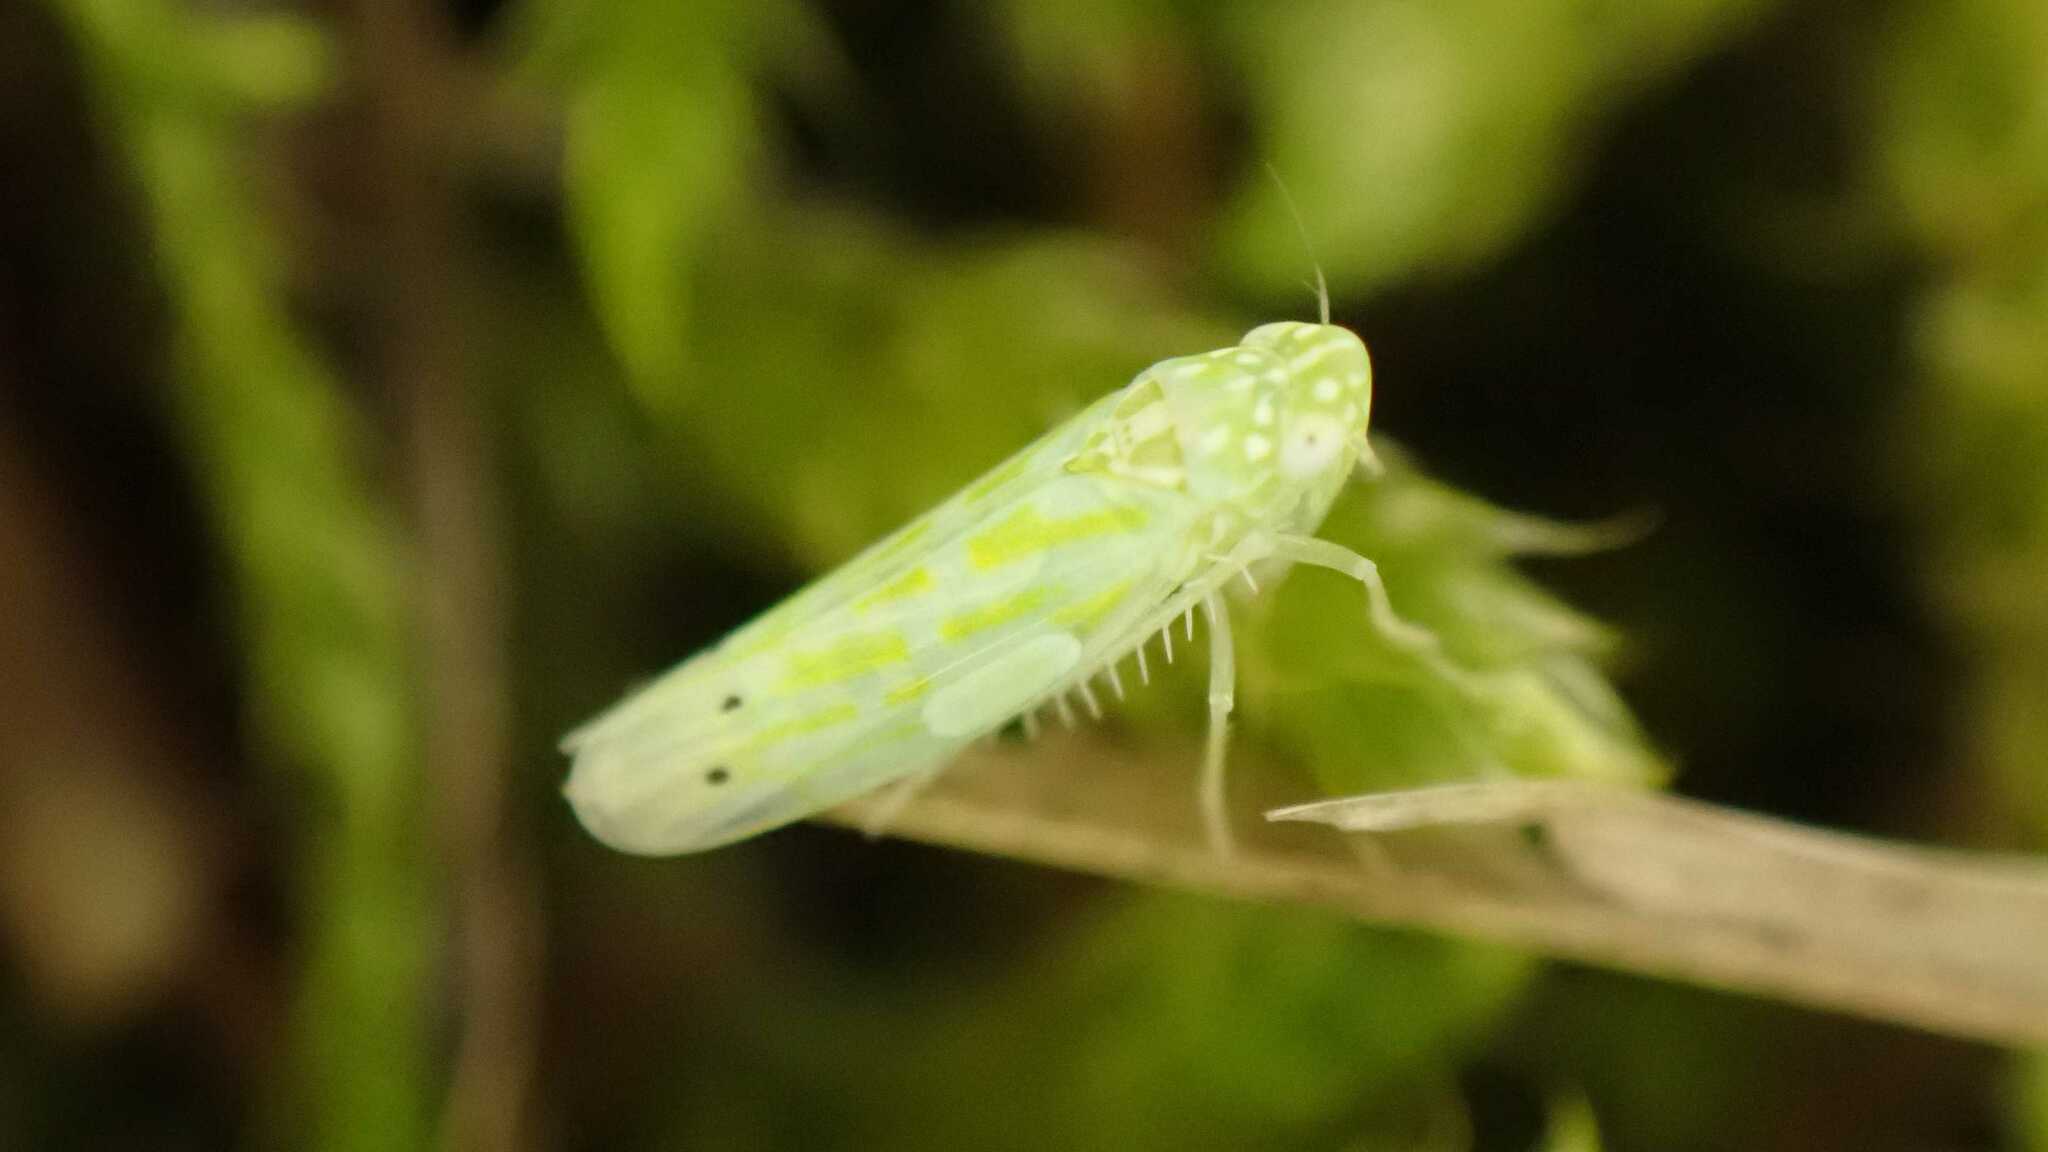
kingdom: Animalia
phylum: Arthropoda
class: Insecta
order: Hemiptera
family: Cicadellidae
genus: Micantulina
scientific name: Micantulina stigmatipennis
